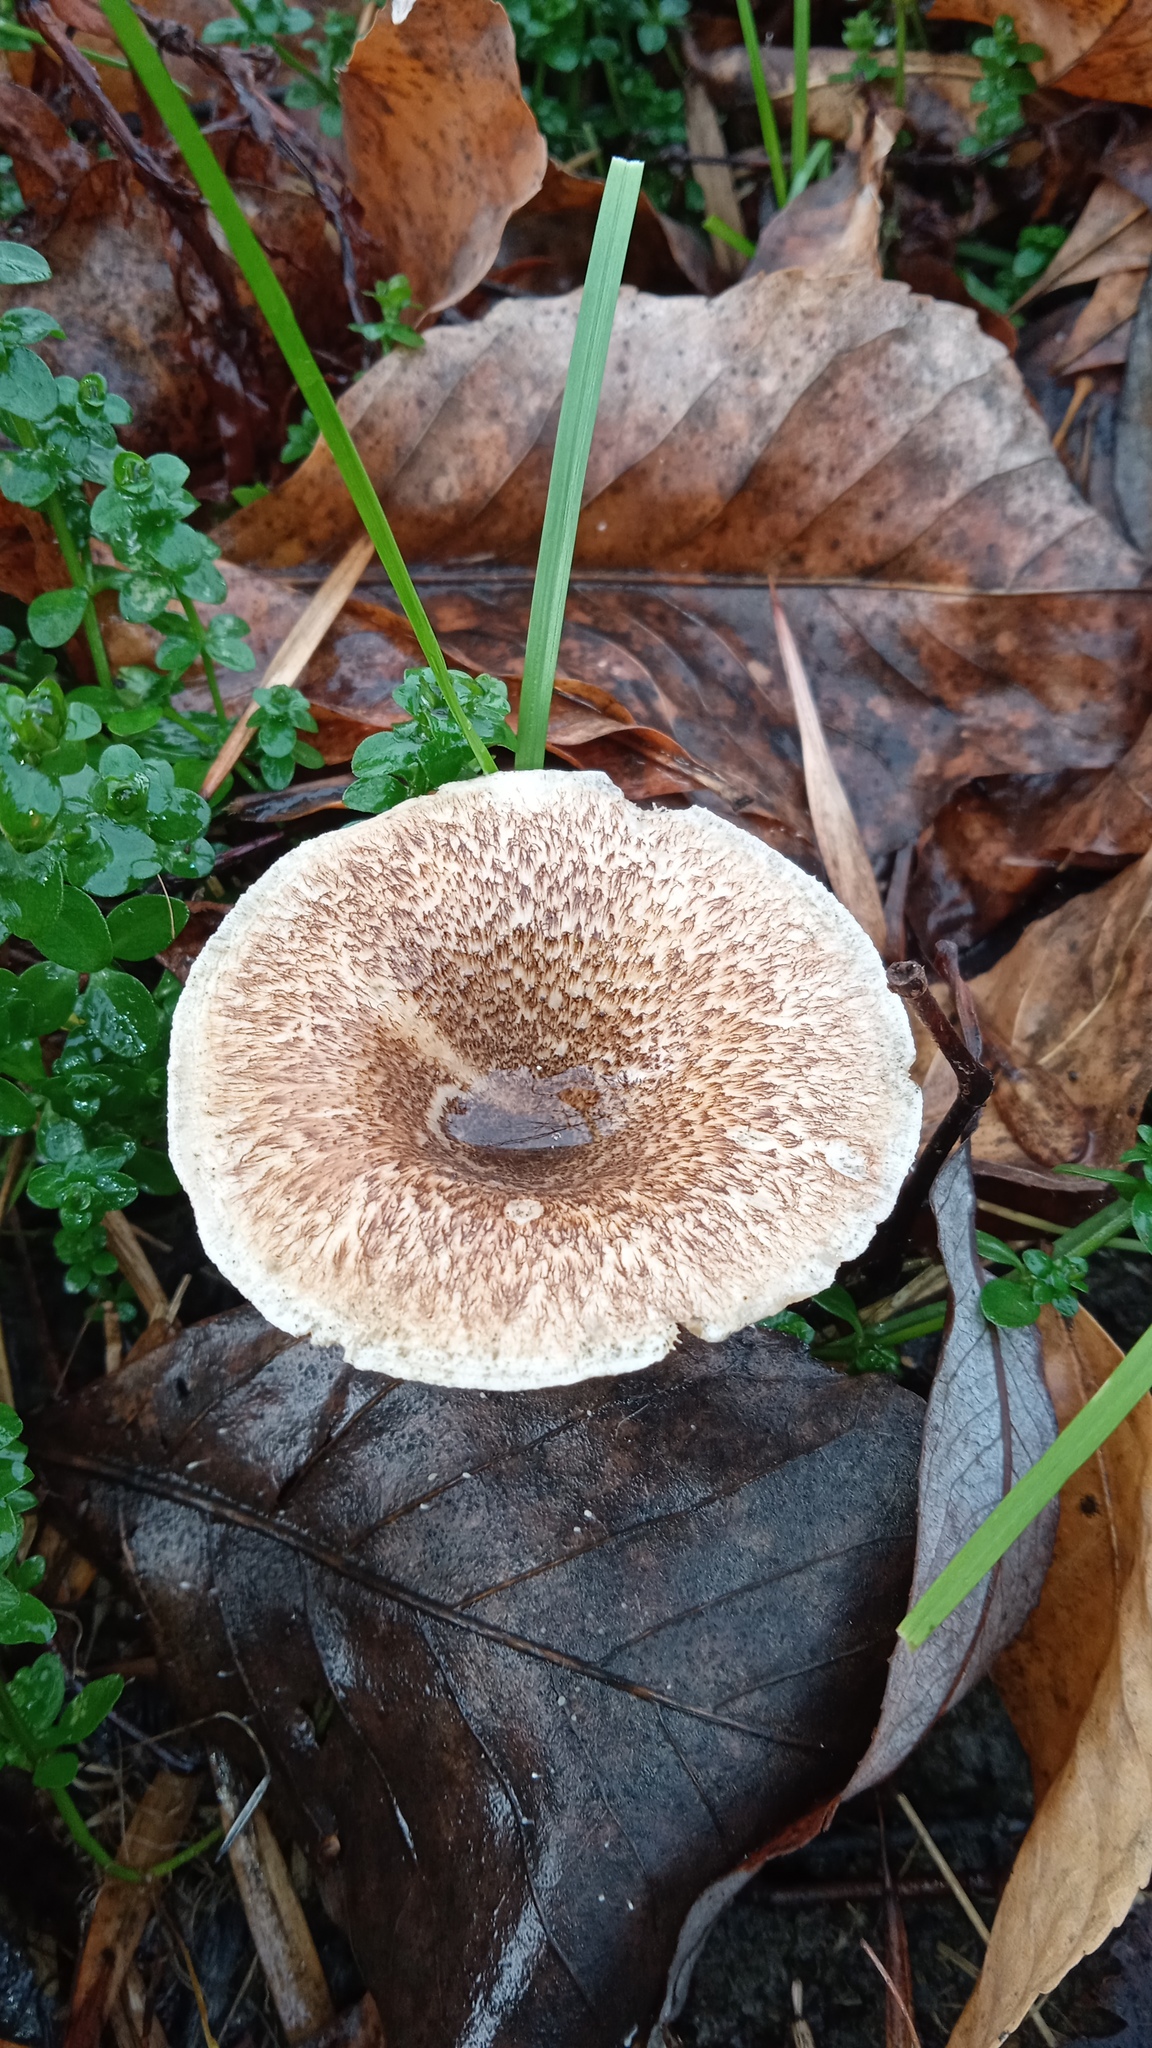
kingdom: Fungi
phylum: Basidiomycota
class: Agaricomycetes
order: Polyporales
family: Polyporaceae
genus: Lentinus
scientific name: Lentinus tigrinus
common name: Tiger sawgill
